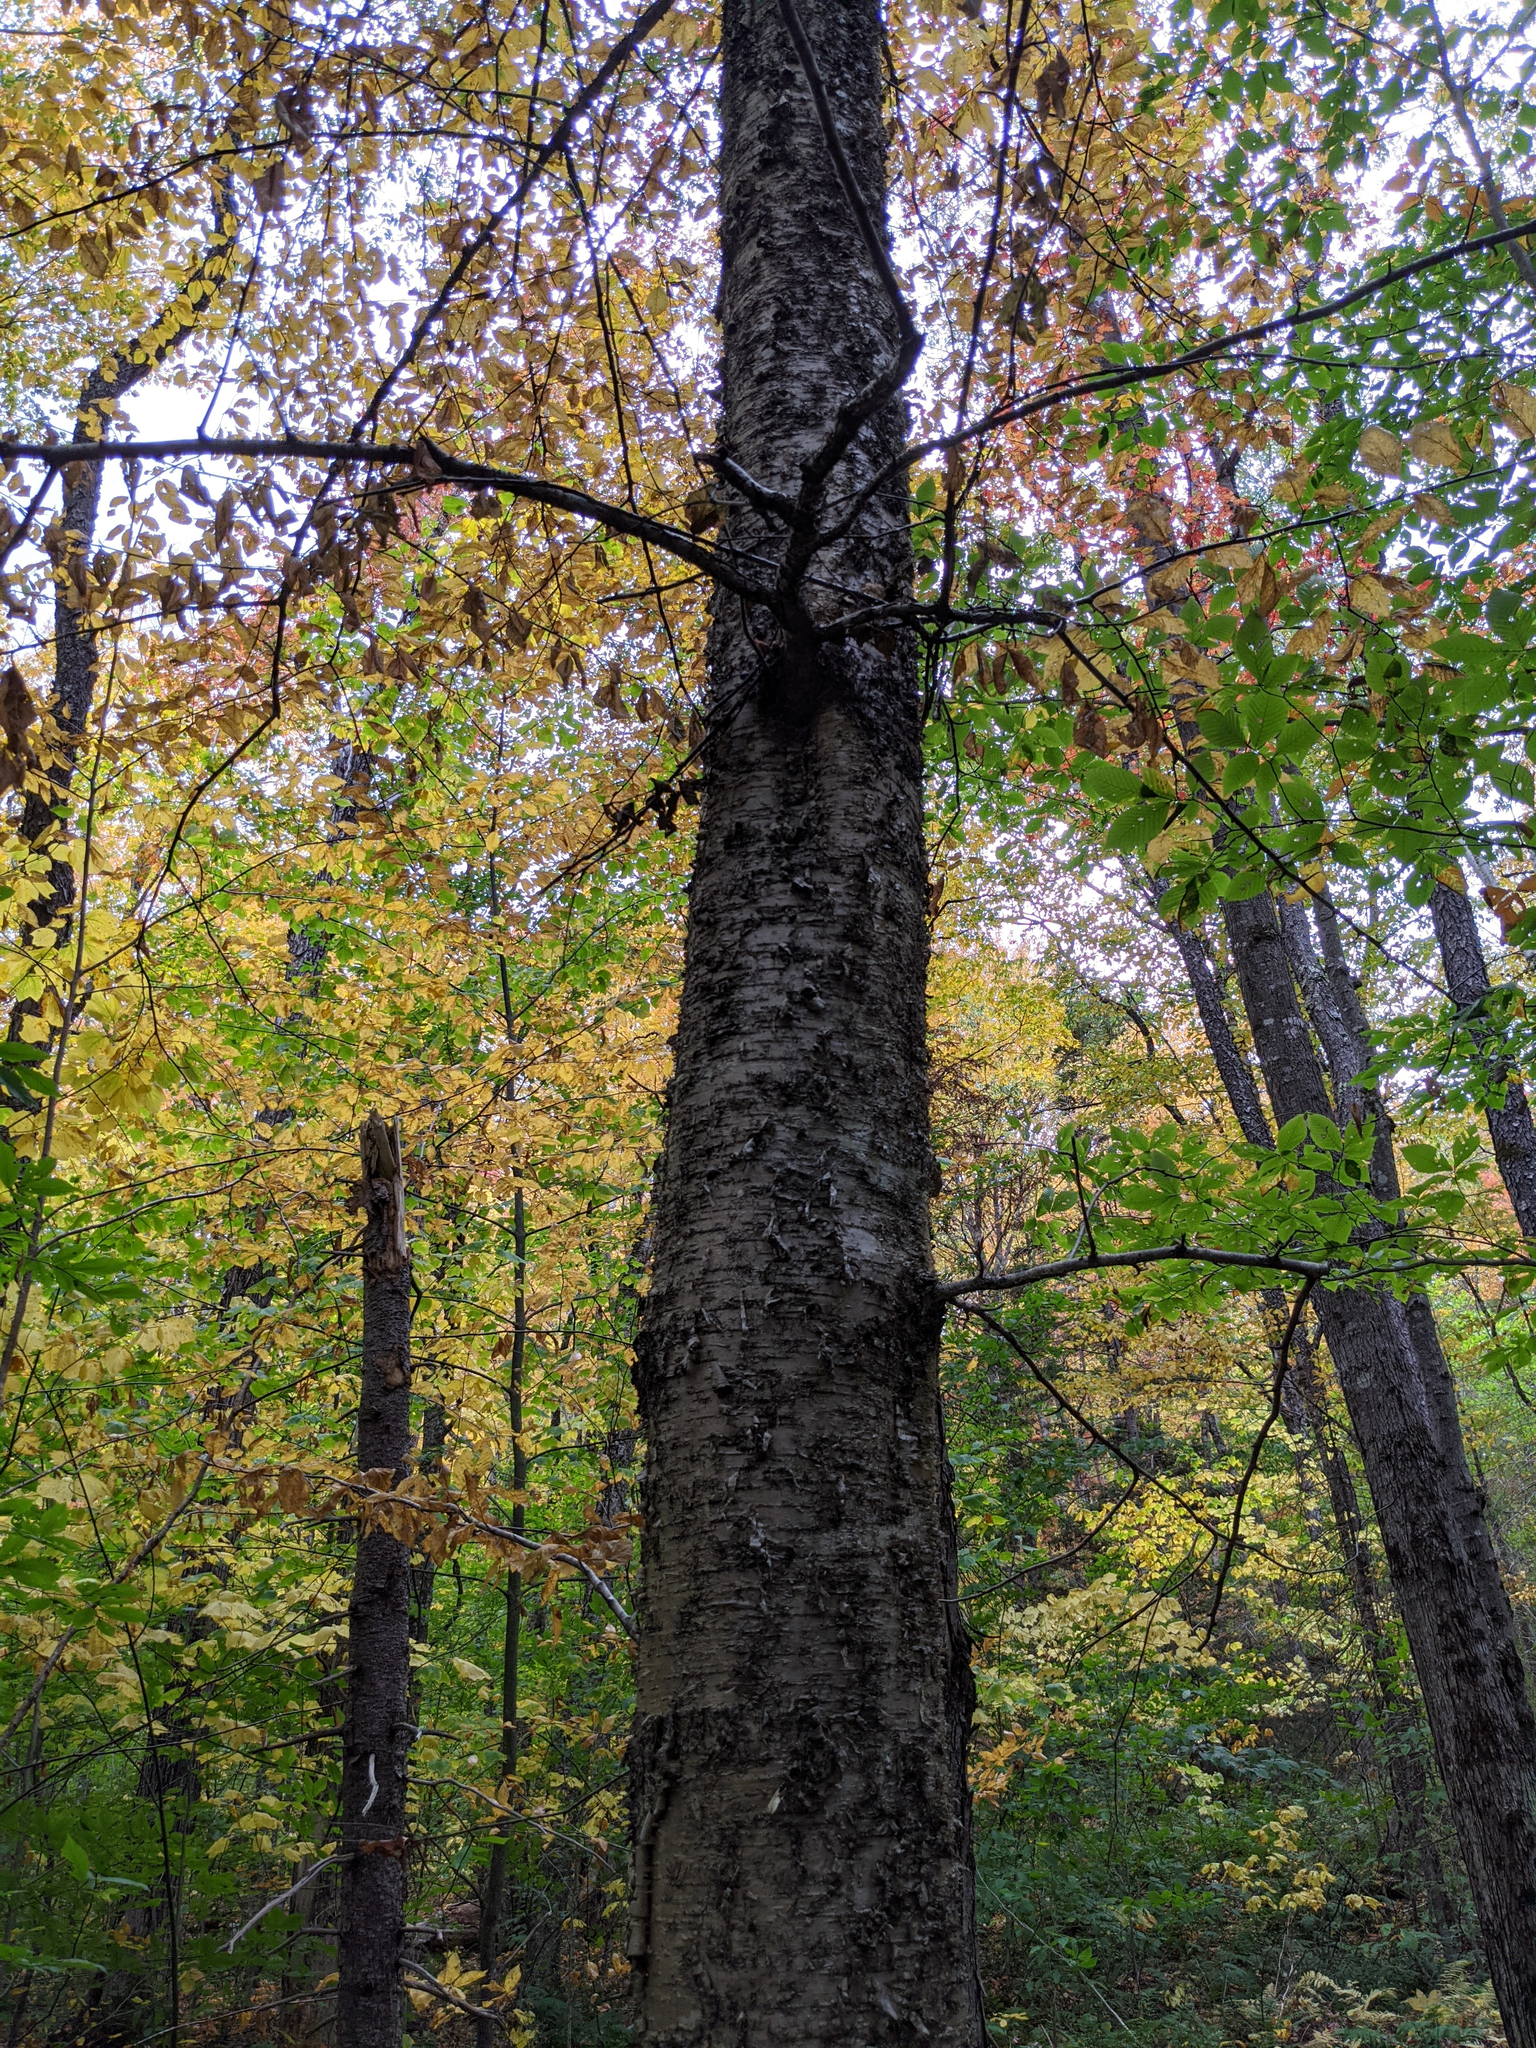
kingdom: Plantae
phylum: Tracheophyta
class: Magnoliopsida
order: Fagales
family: Betulaceae
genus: Betula
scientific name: Betula alleghaniensis
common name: Yellow birch
